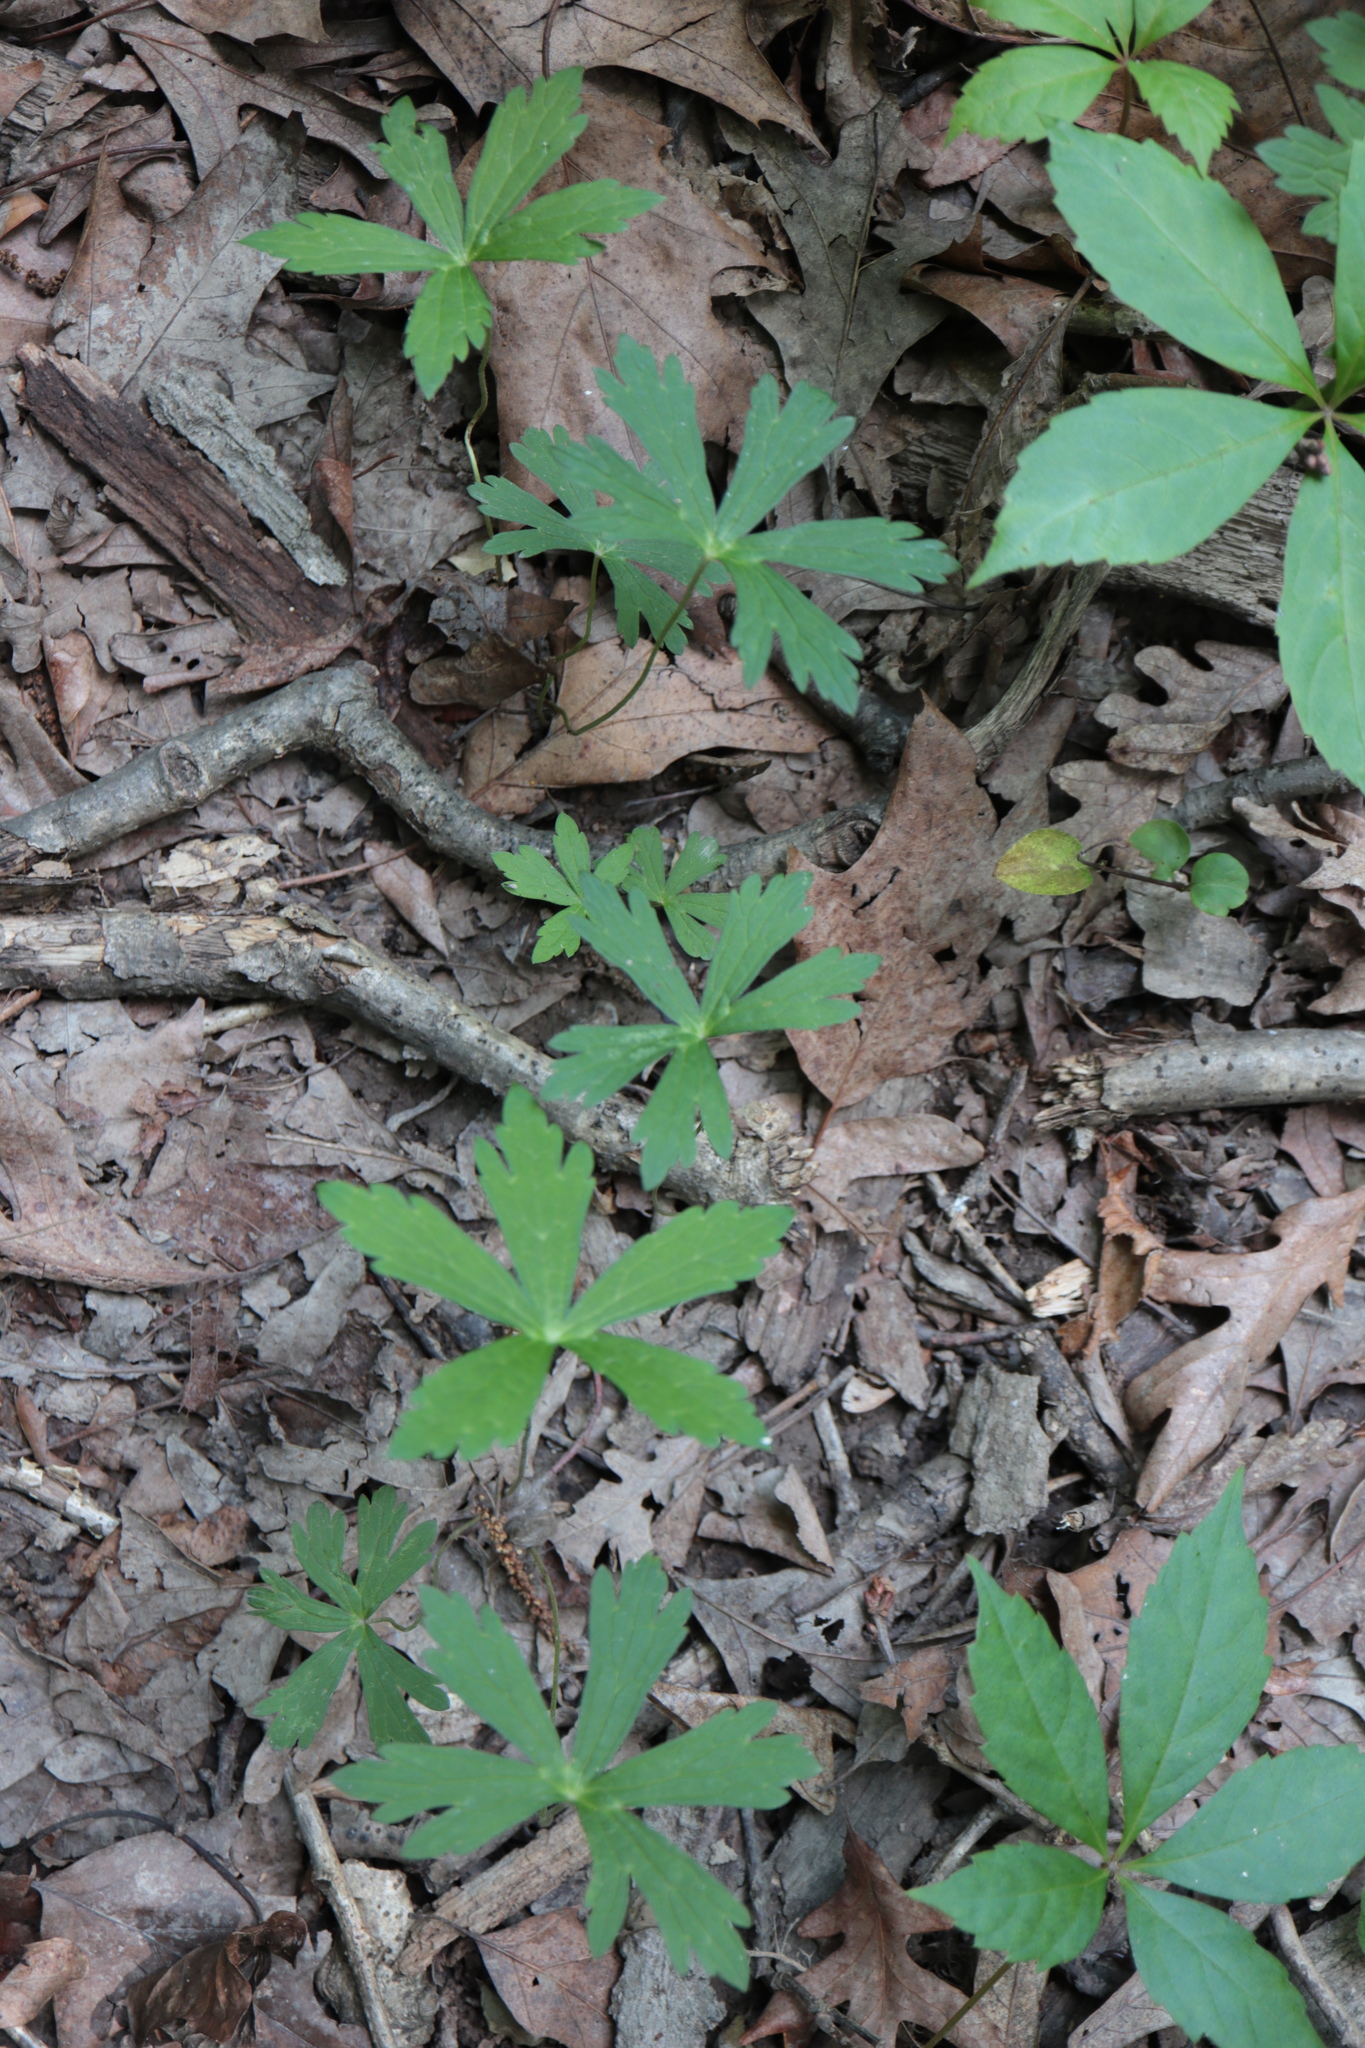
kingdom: Plantae
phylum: Tracheophyta
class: Magnoliopsida
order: Geraniales
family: Geraniaceae
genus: Geranium
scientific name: Geranium maculatum
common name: Spotted geranium
